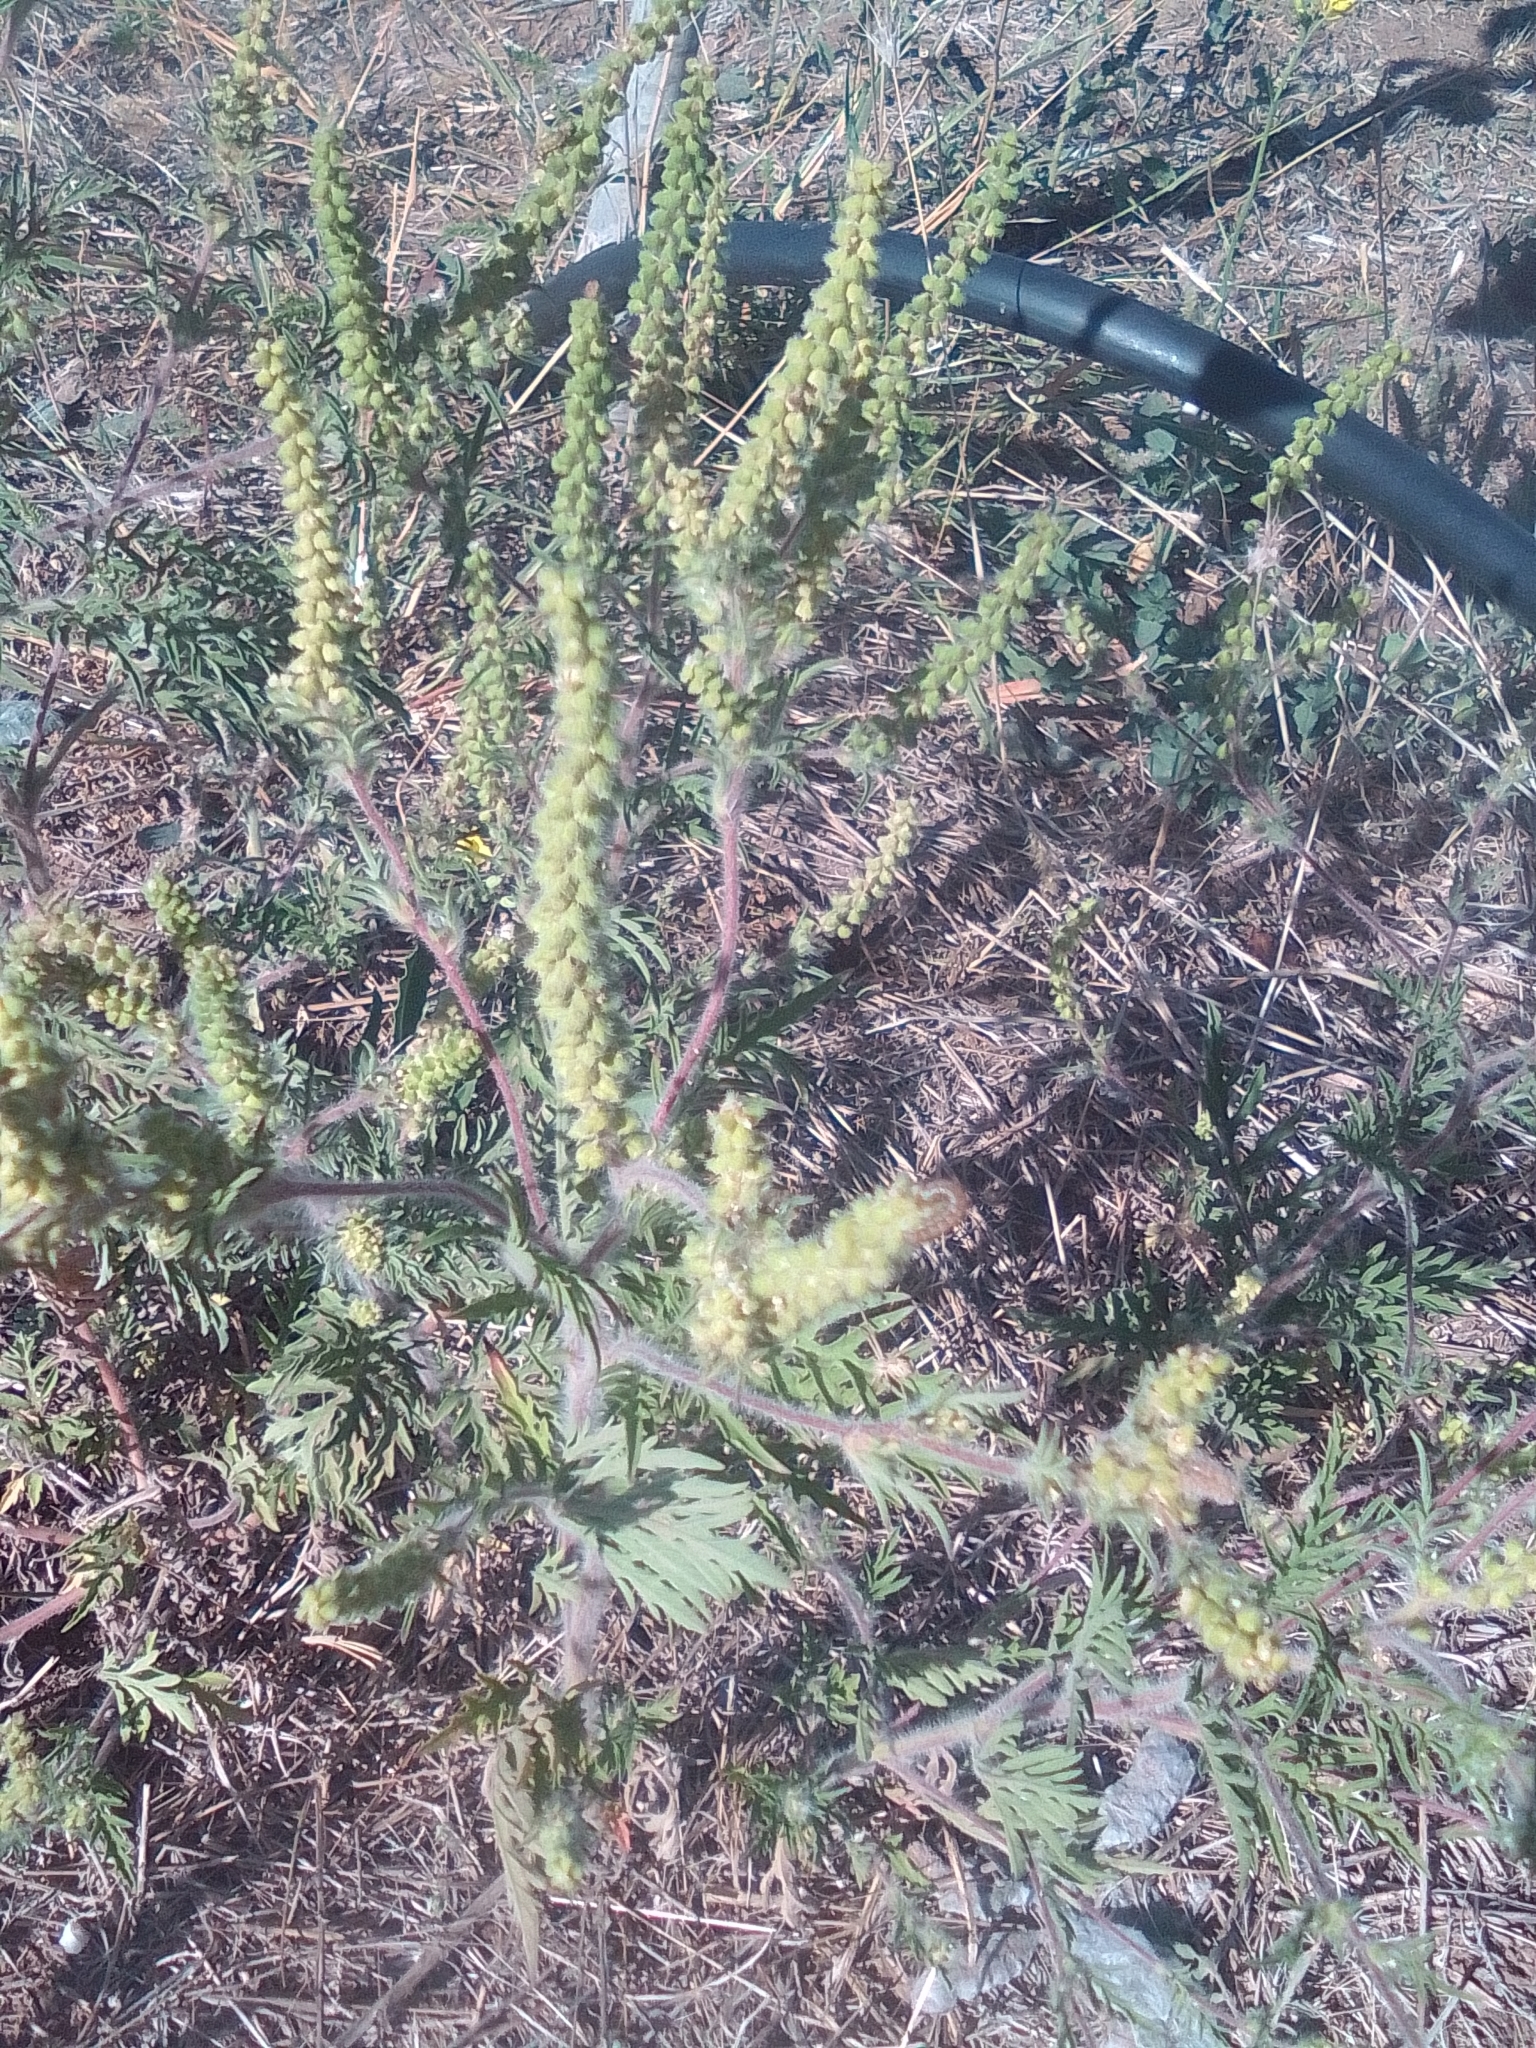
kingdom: Plantae
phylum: Tracheophyta
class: Magnoliopsida
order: Asterales
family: Asteraceae
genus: Ambrosia
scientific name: Ambrosia artemisiifolia
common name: Annual ragweed
